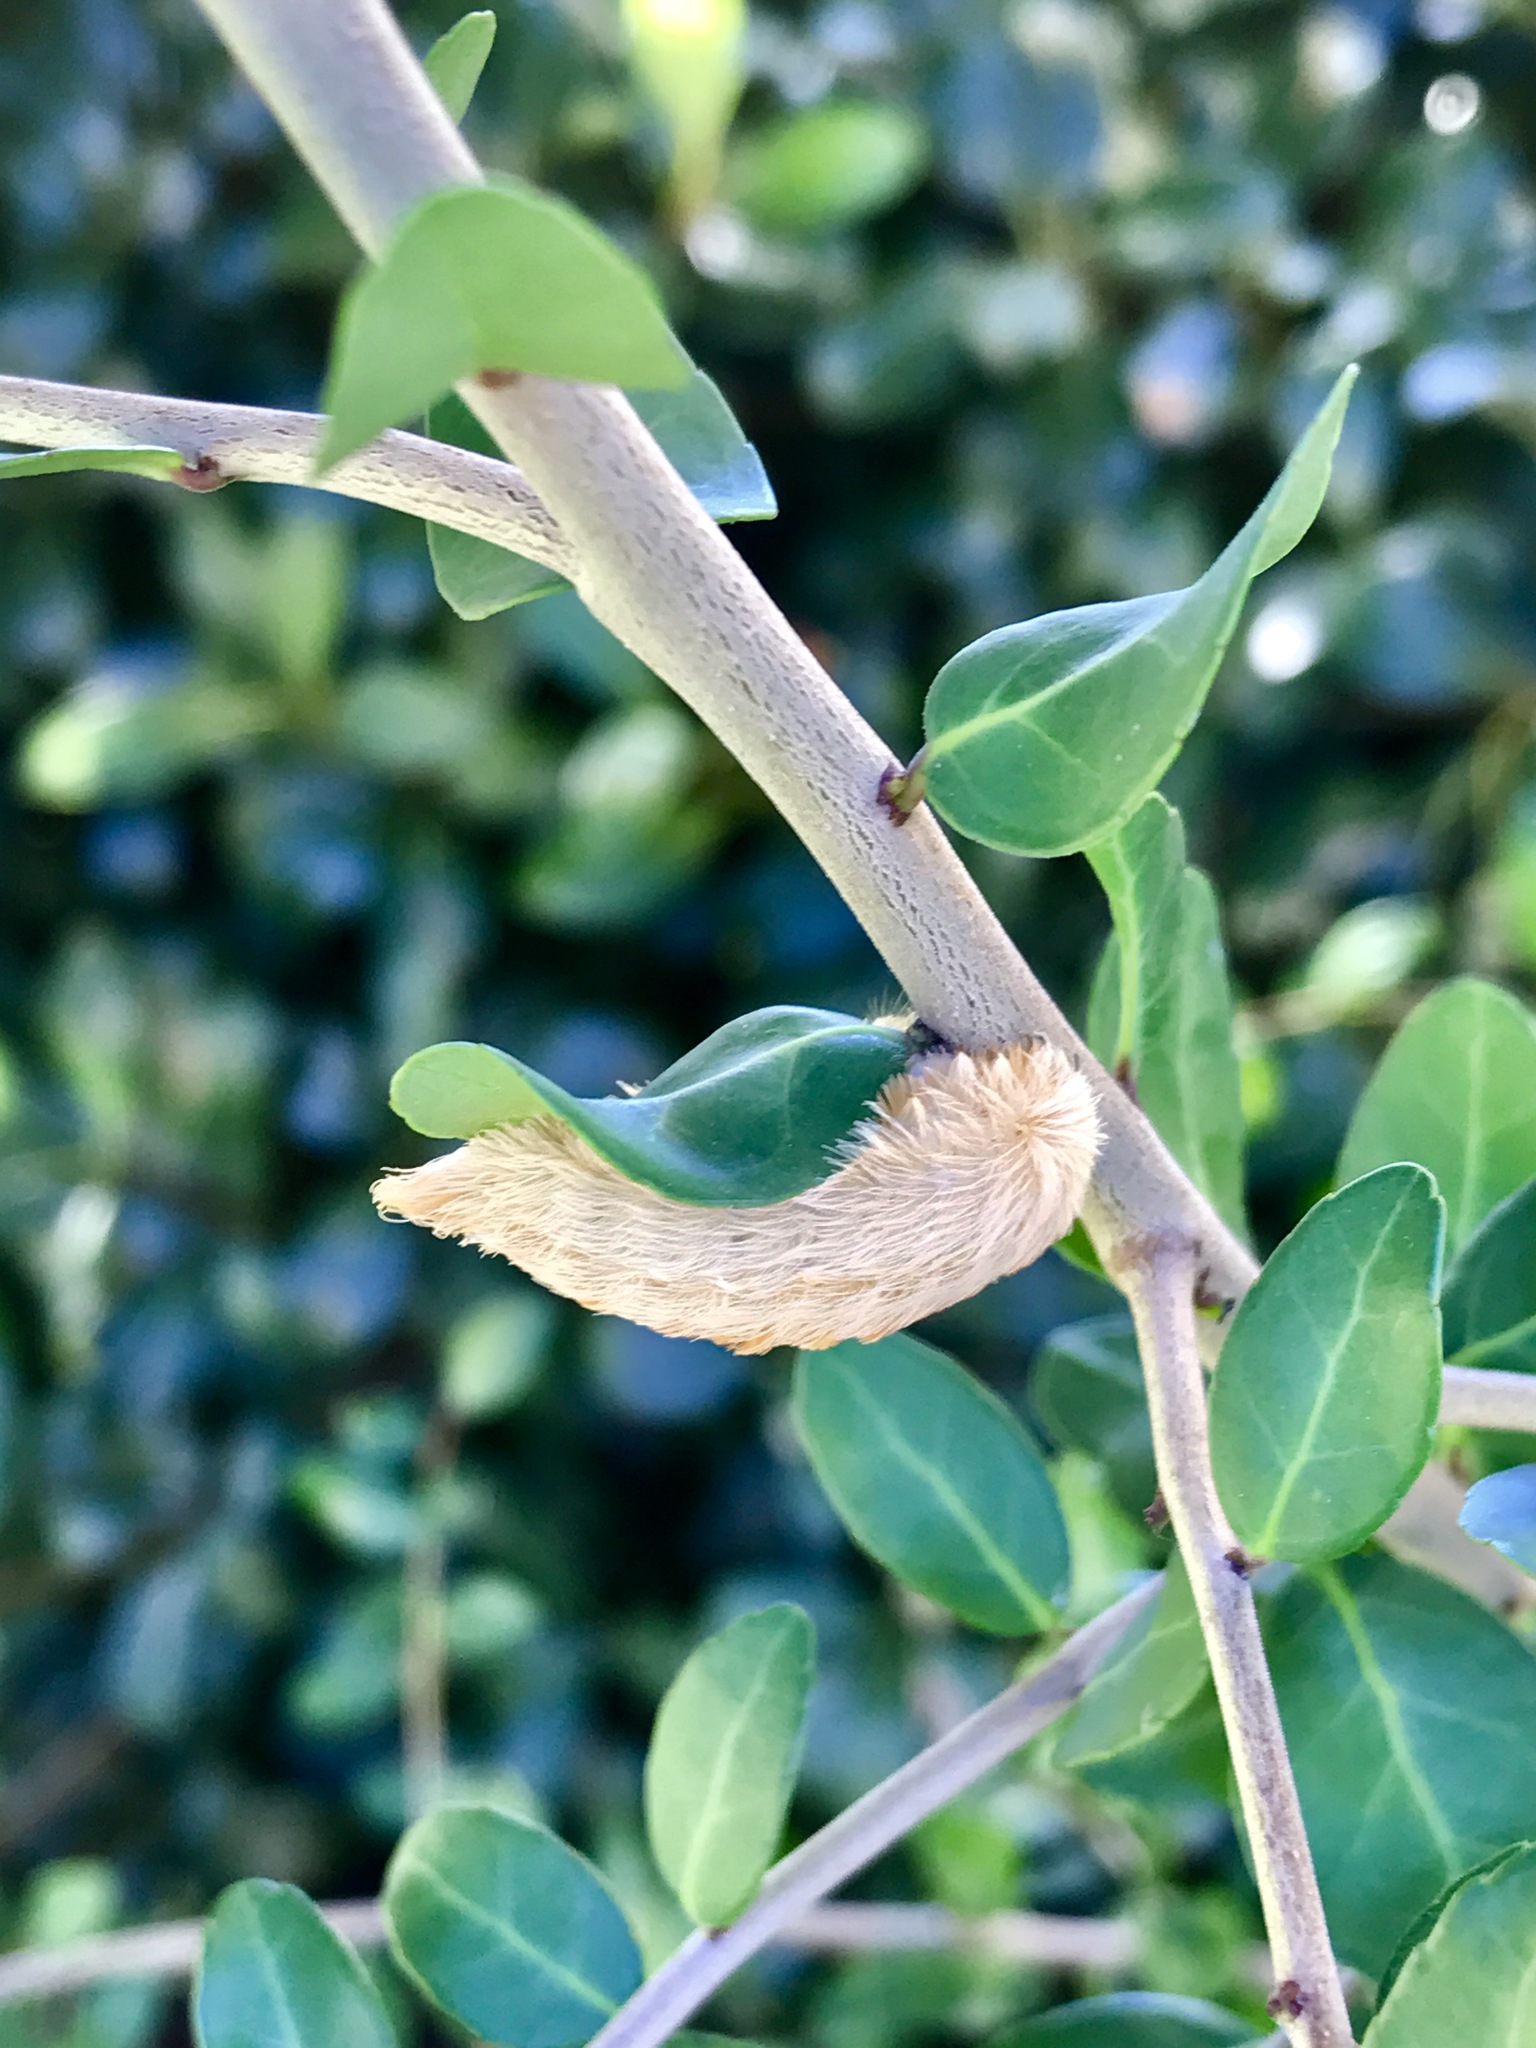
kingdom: Animalia
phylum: Arthropoda
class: Insecta
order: Lepidoptera
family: Megalopygidae
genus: Megalopyge
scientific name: Megalopyge opercularis
